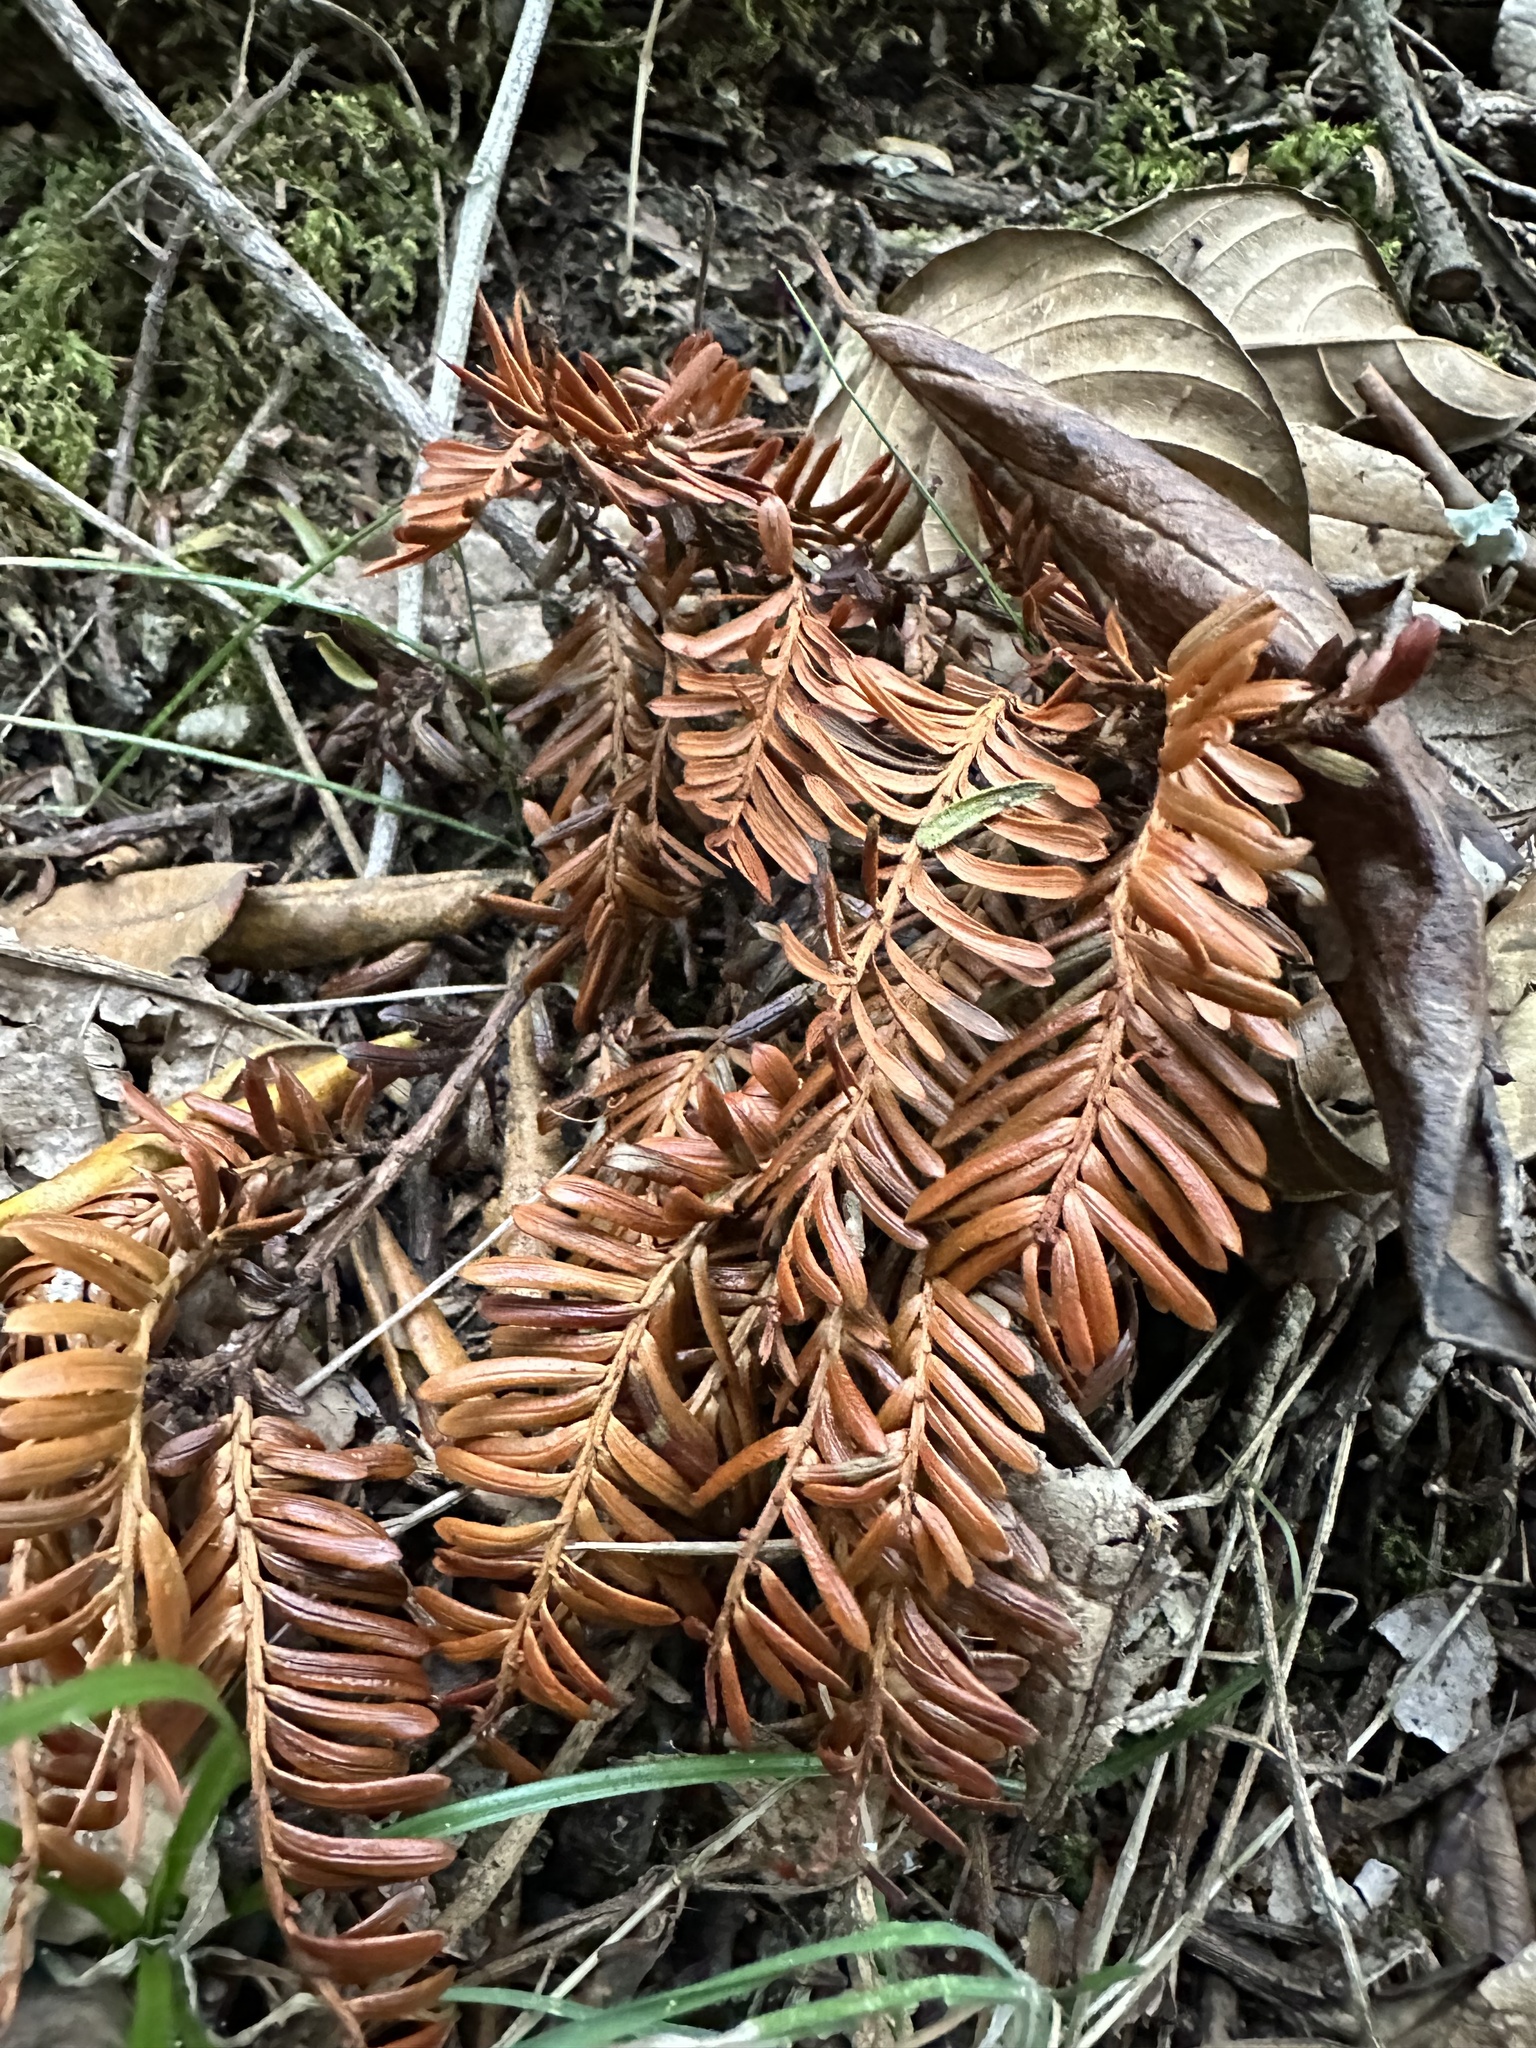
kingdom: Plantae
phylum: Tracheophyta
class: Pinopsida
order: Pinales
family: Podocarpaceae
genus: Prumnopitys
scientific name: Prumnopitys montana
